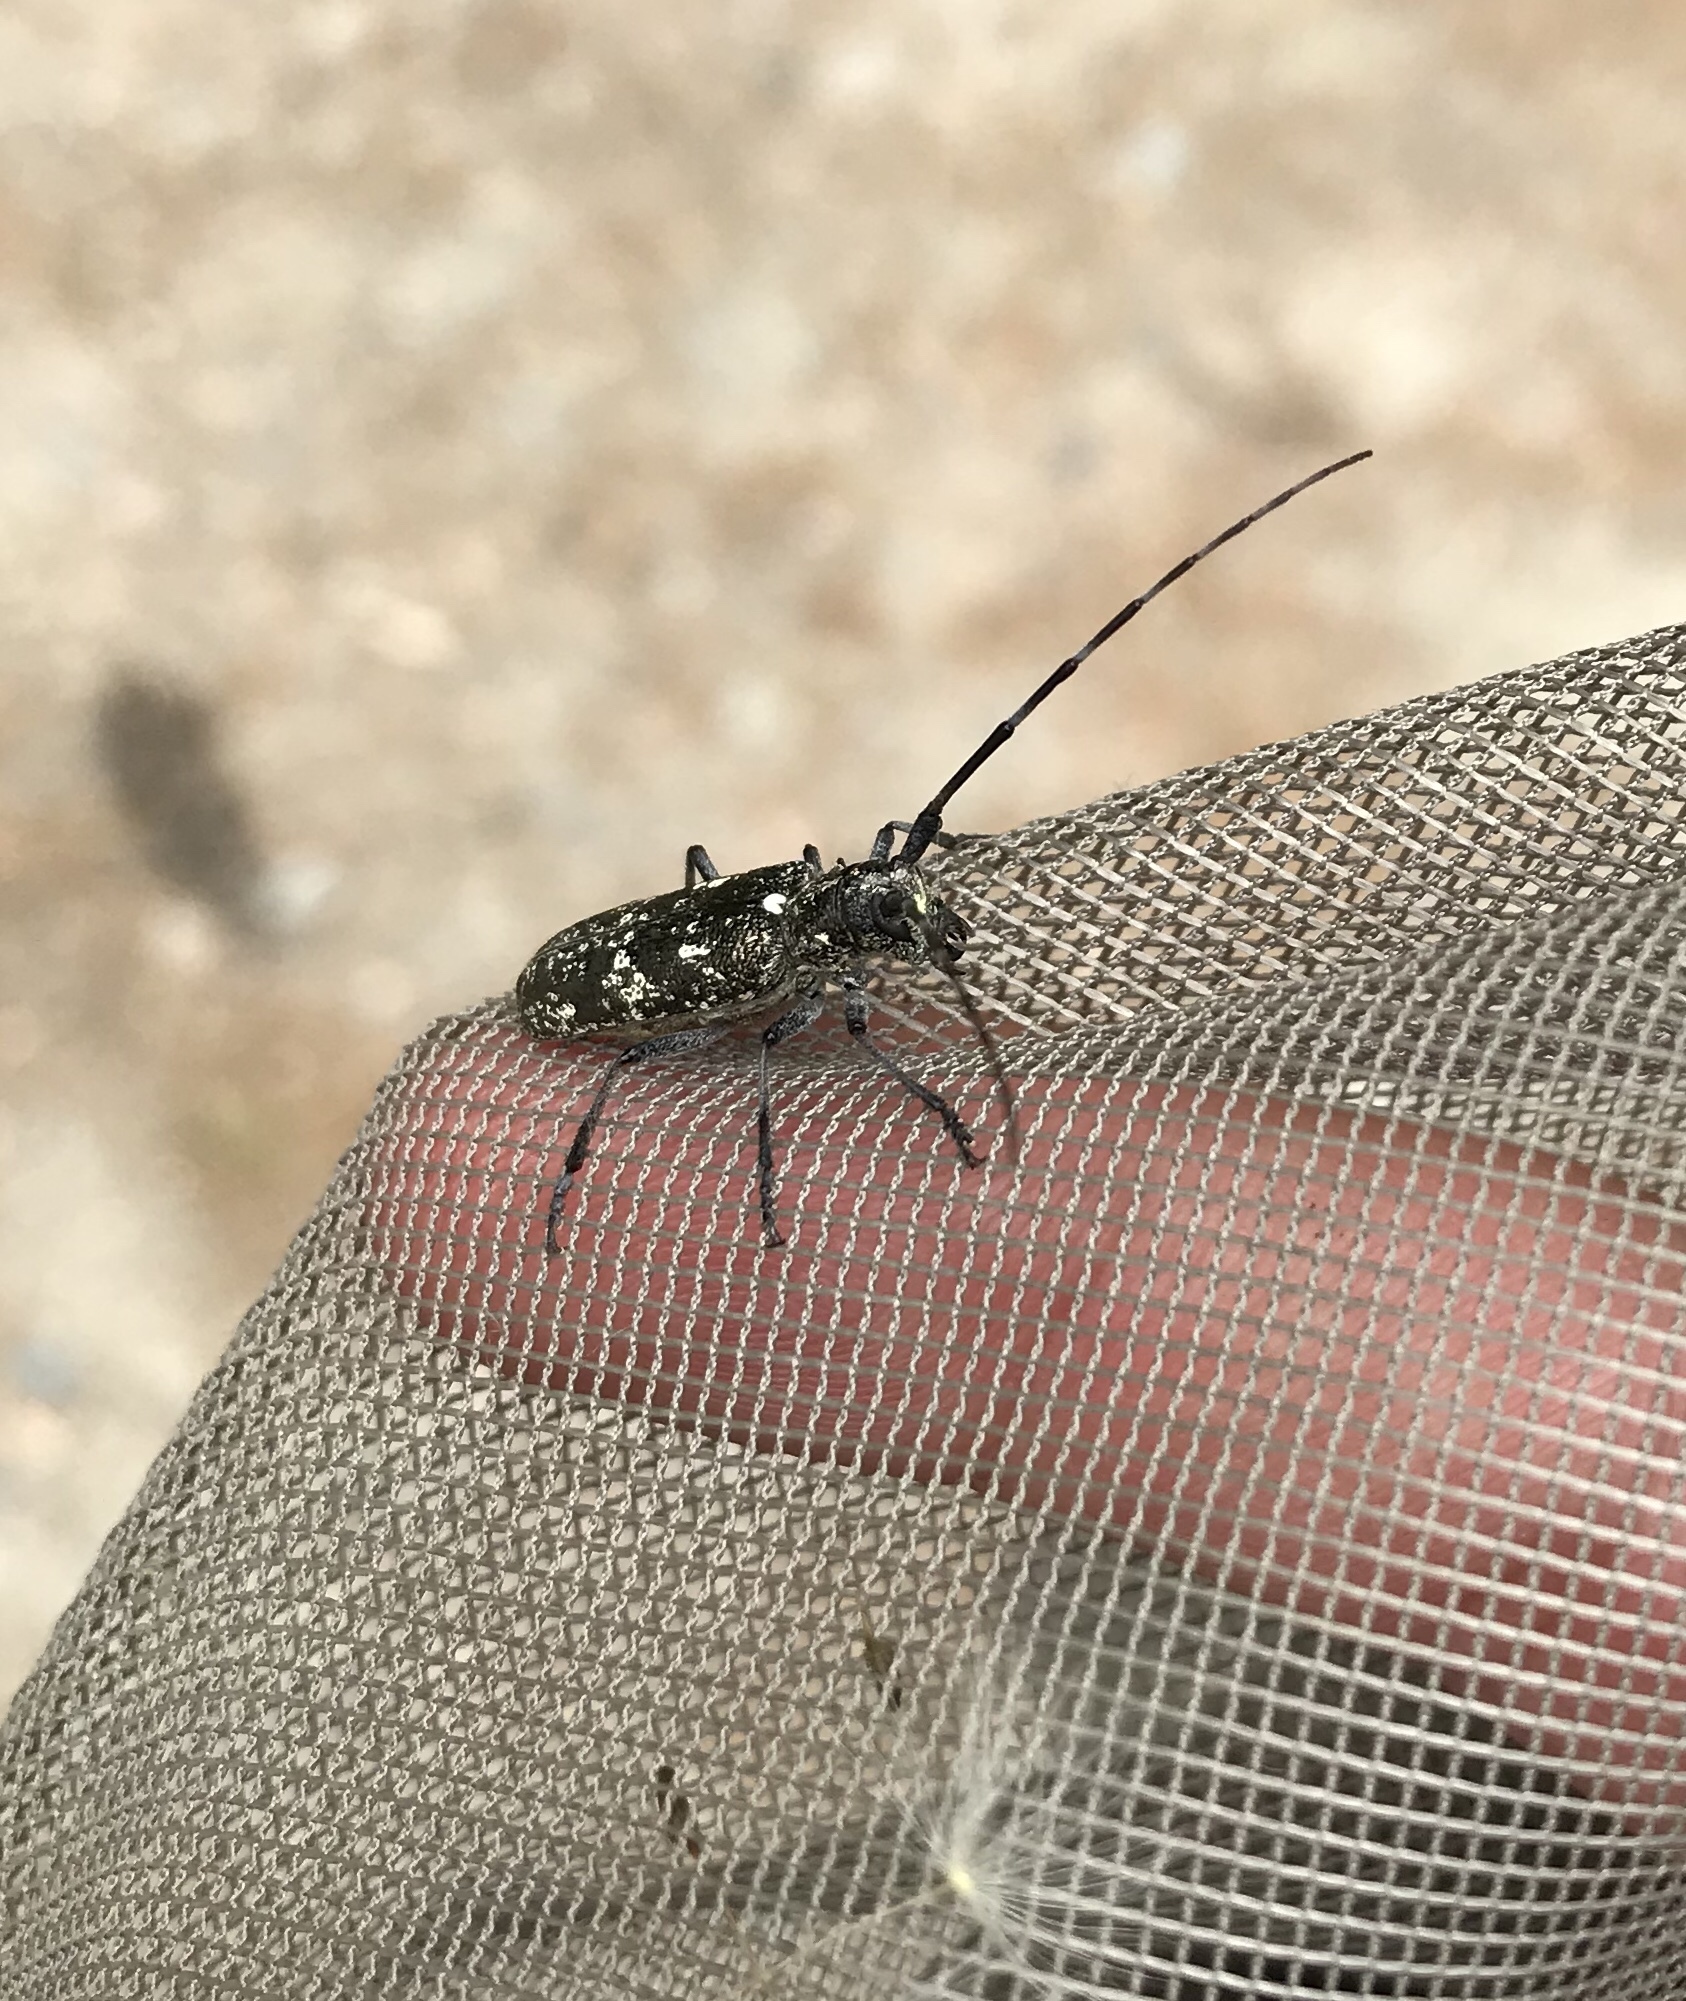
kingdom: Animalia
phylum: Arthropoda
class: Insecta
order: Coleoptera
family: Cerambycidae
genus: Monochamus
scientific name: Monochamus scutellatus
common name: White-spotted sawyer beetle
